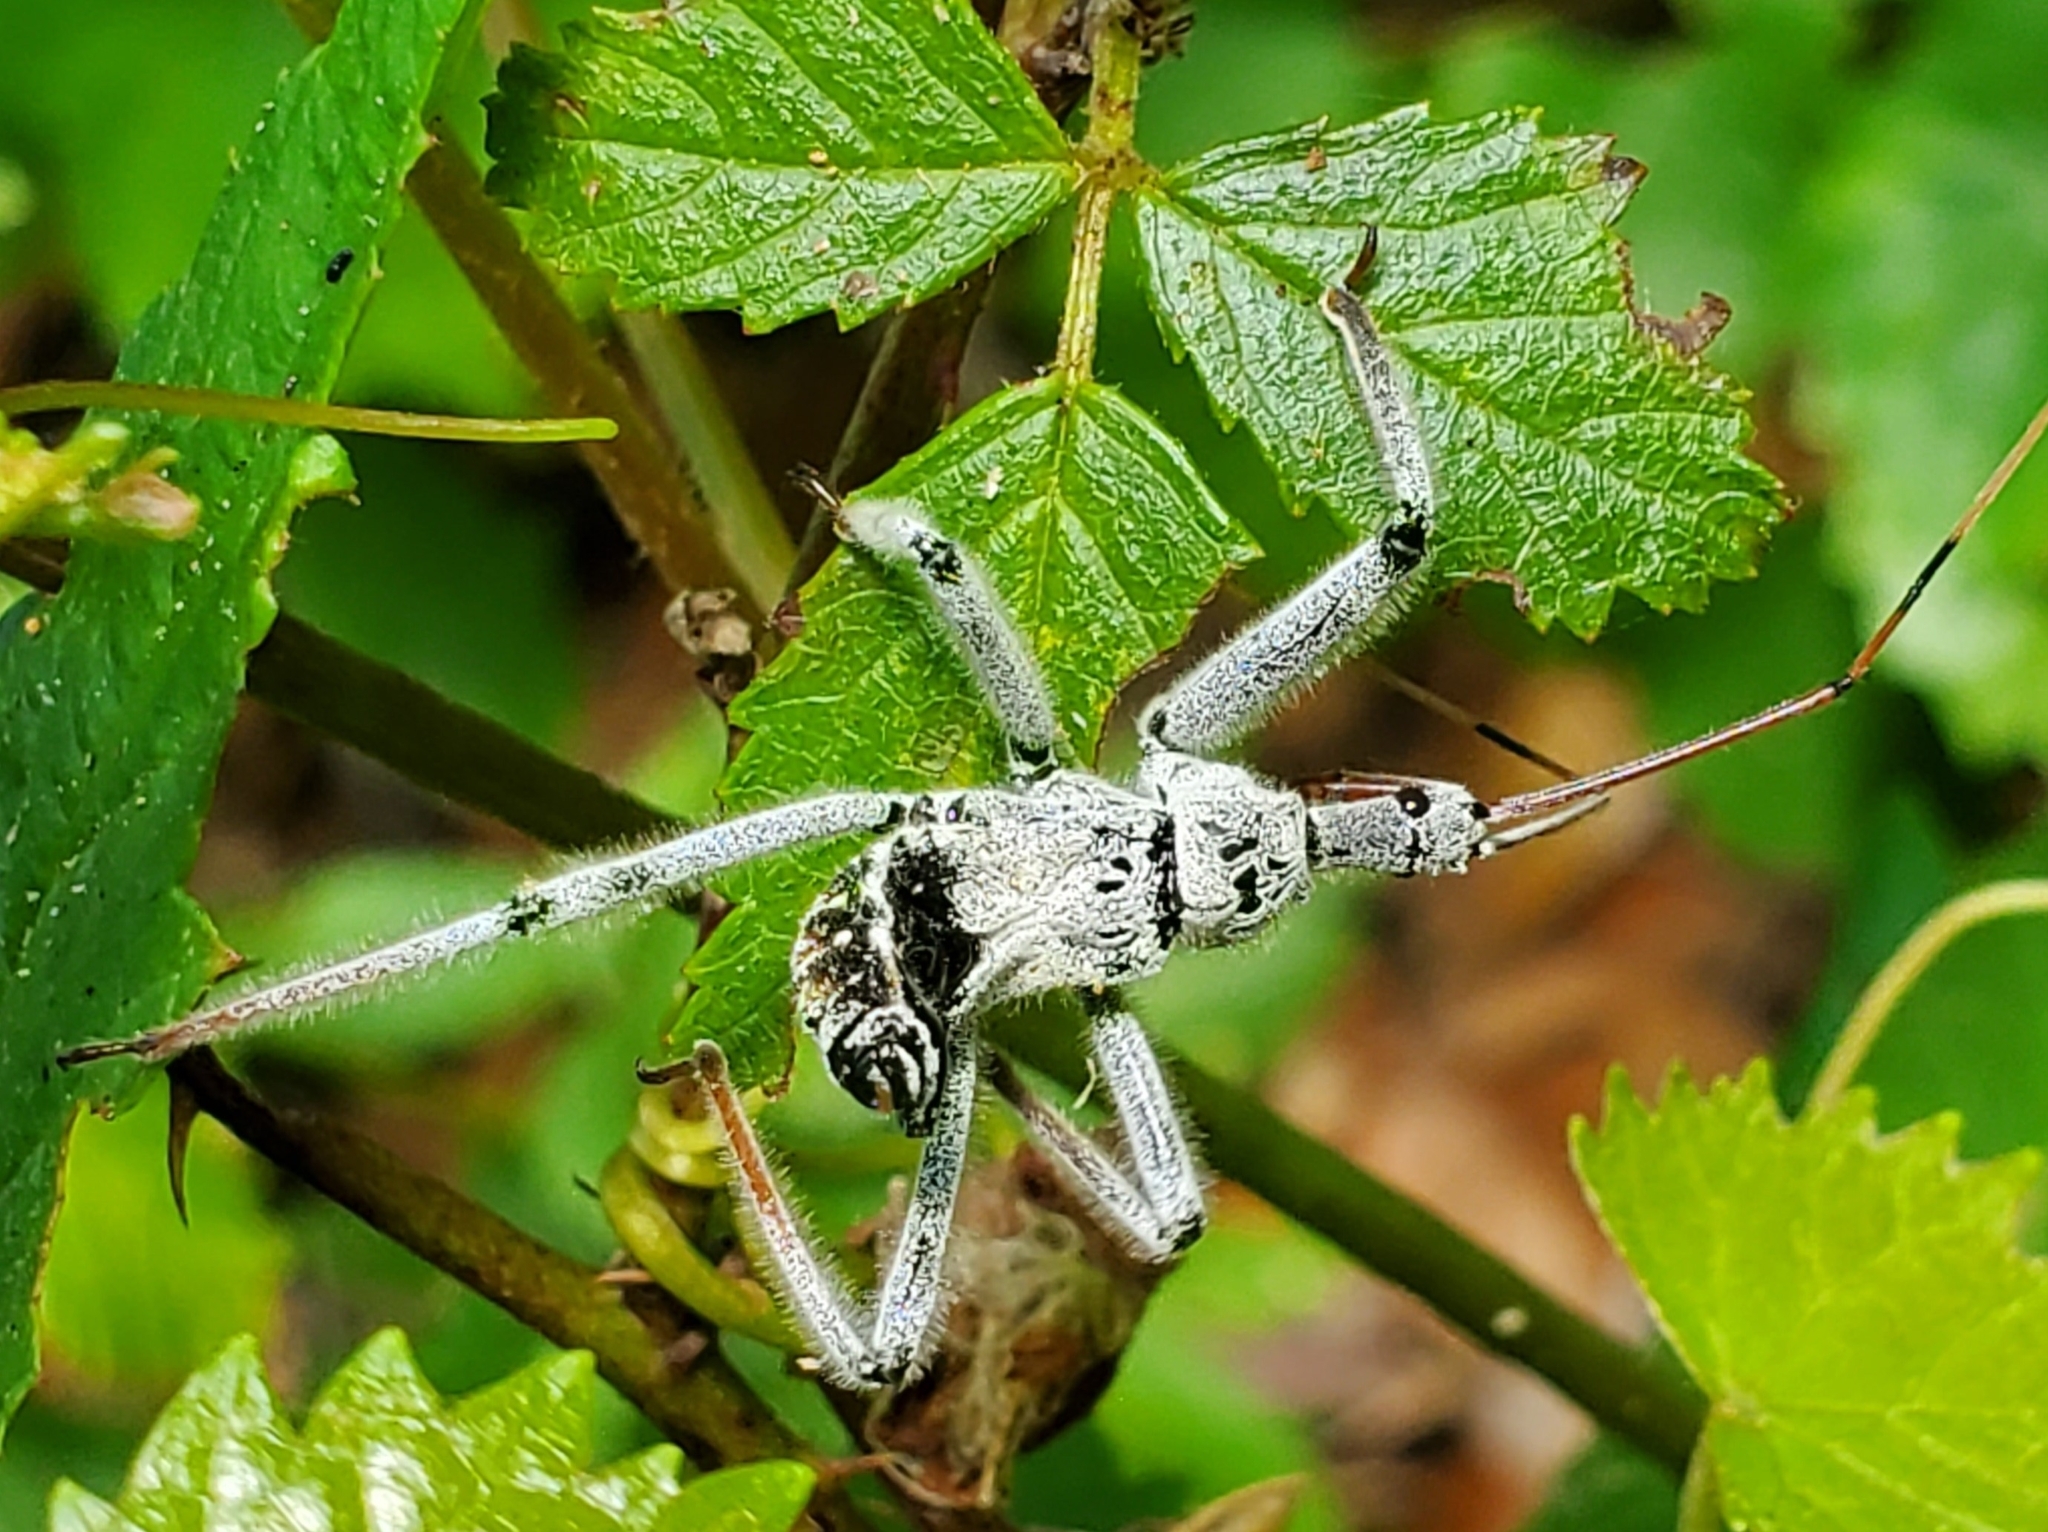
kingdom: Animalia
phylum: Arthropoda
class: Insecta
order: Hemiptera
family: Reduviidae
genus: Arilus
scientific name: Arilus cristatus
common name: North american wheel bug
